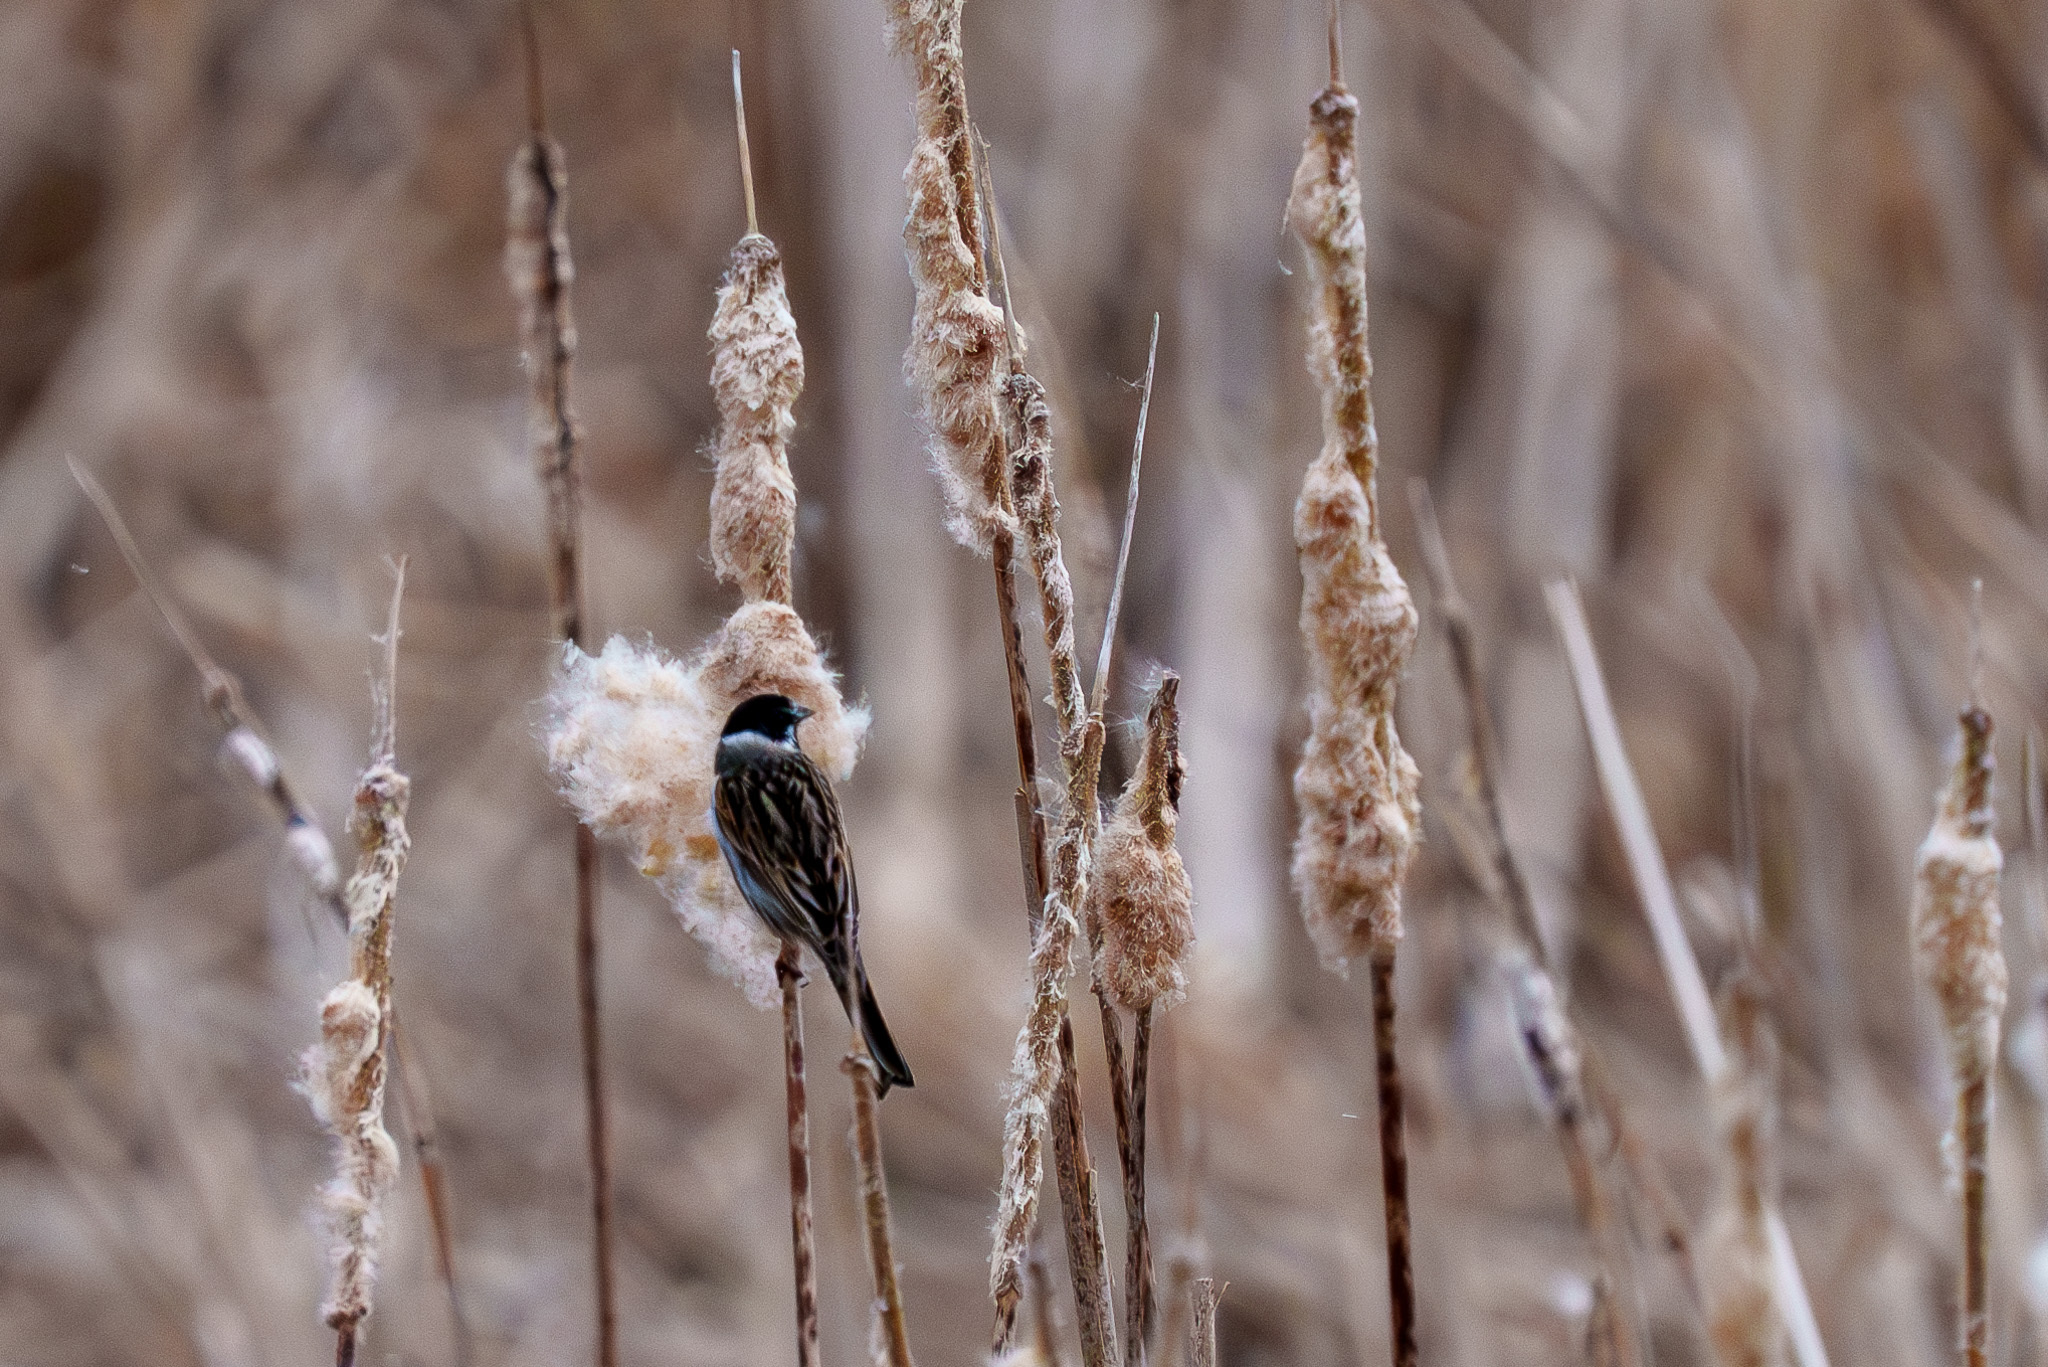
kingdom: Animalia
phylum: Chordata
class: Aves
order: Passeriformes
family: Emberizidae
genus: Emberiza
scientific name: Emberiza schoeniclus
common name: Reed bunting
